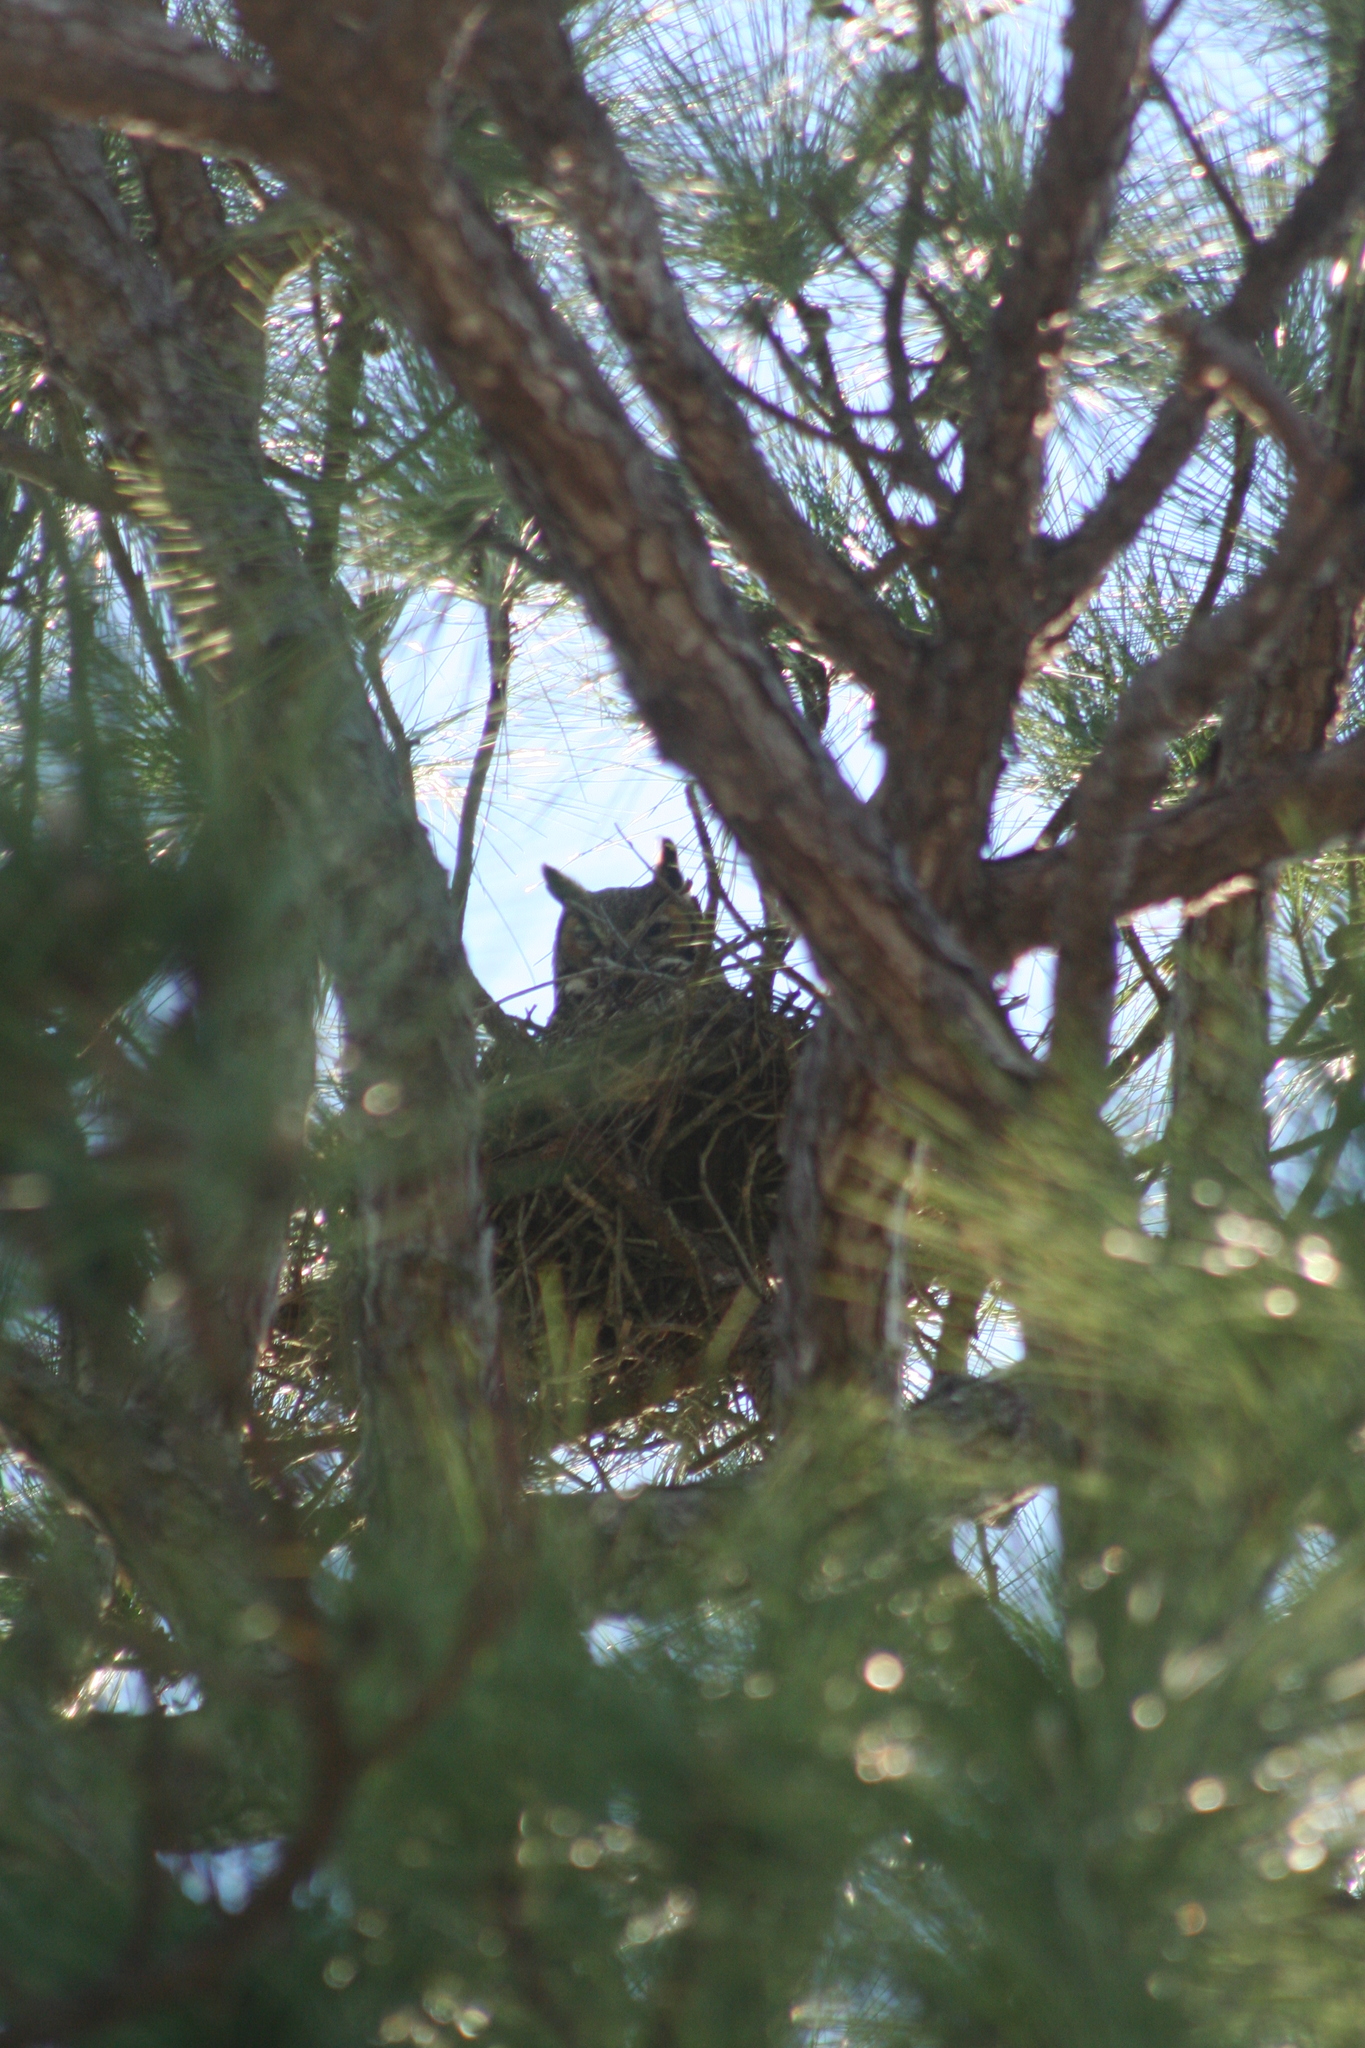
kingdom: Animalia
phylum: Chordata
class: Aves
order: Strigiformes
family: Strigidae
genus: Bubo
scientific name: Bubo virginianus
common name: Great horned owl
